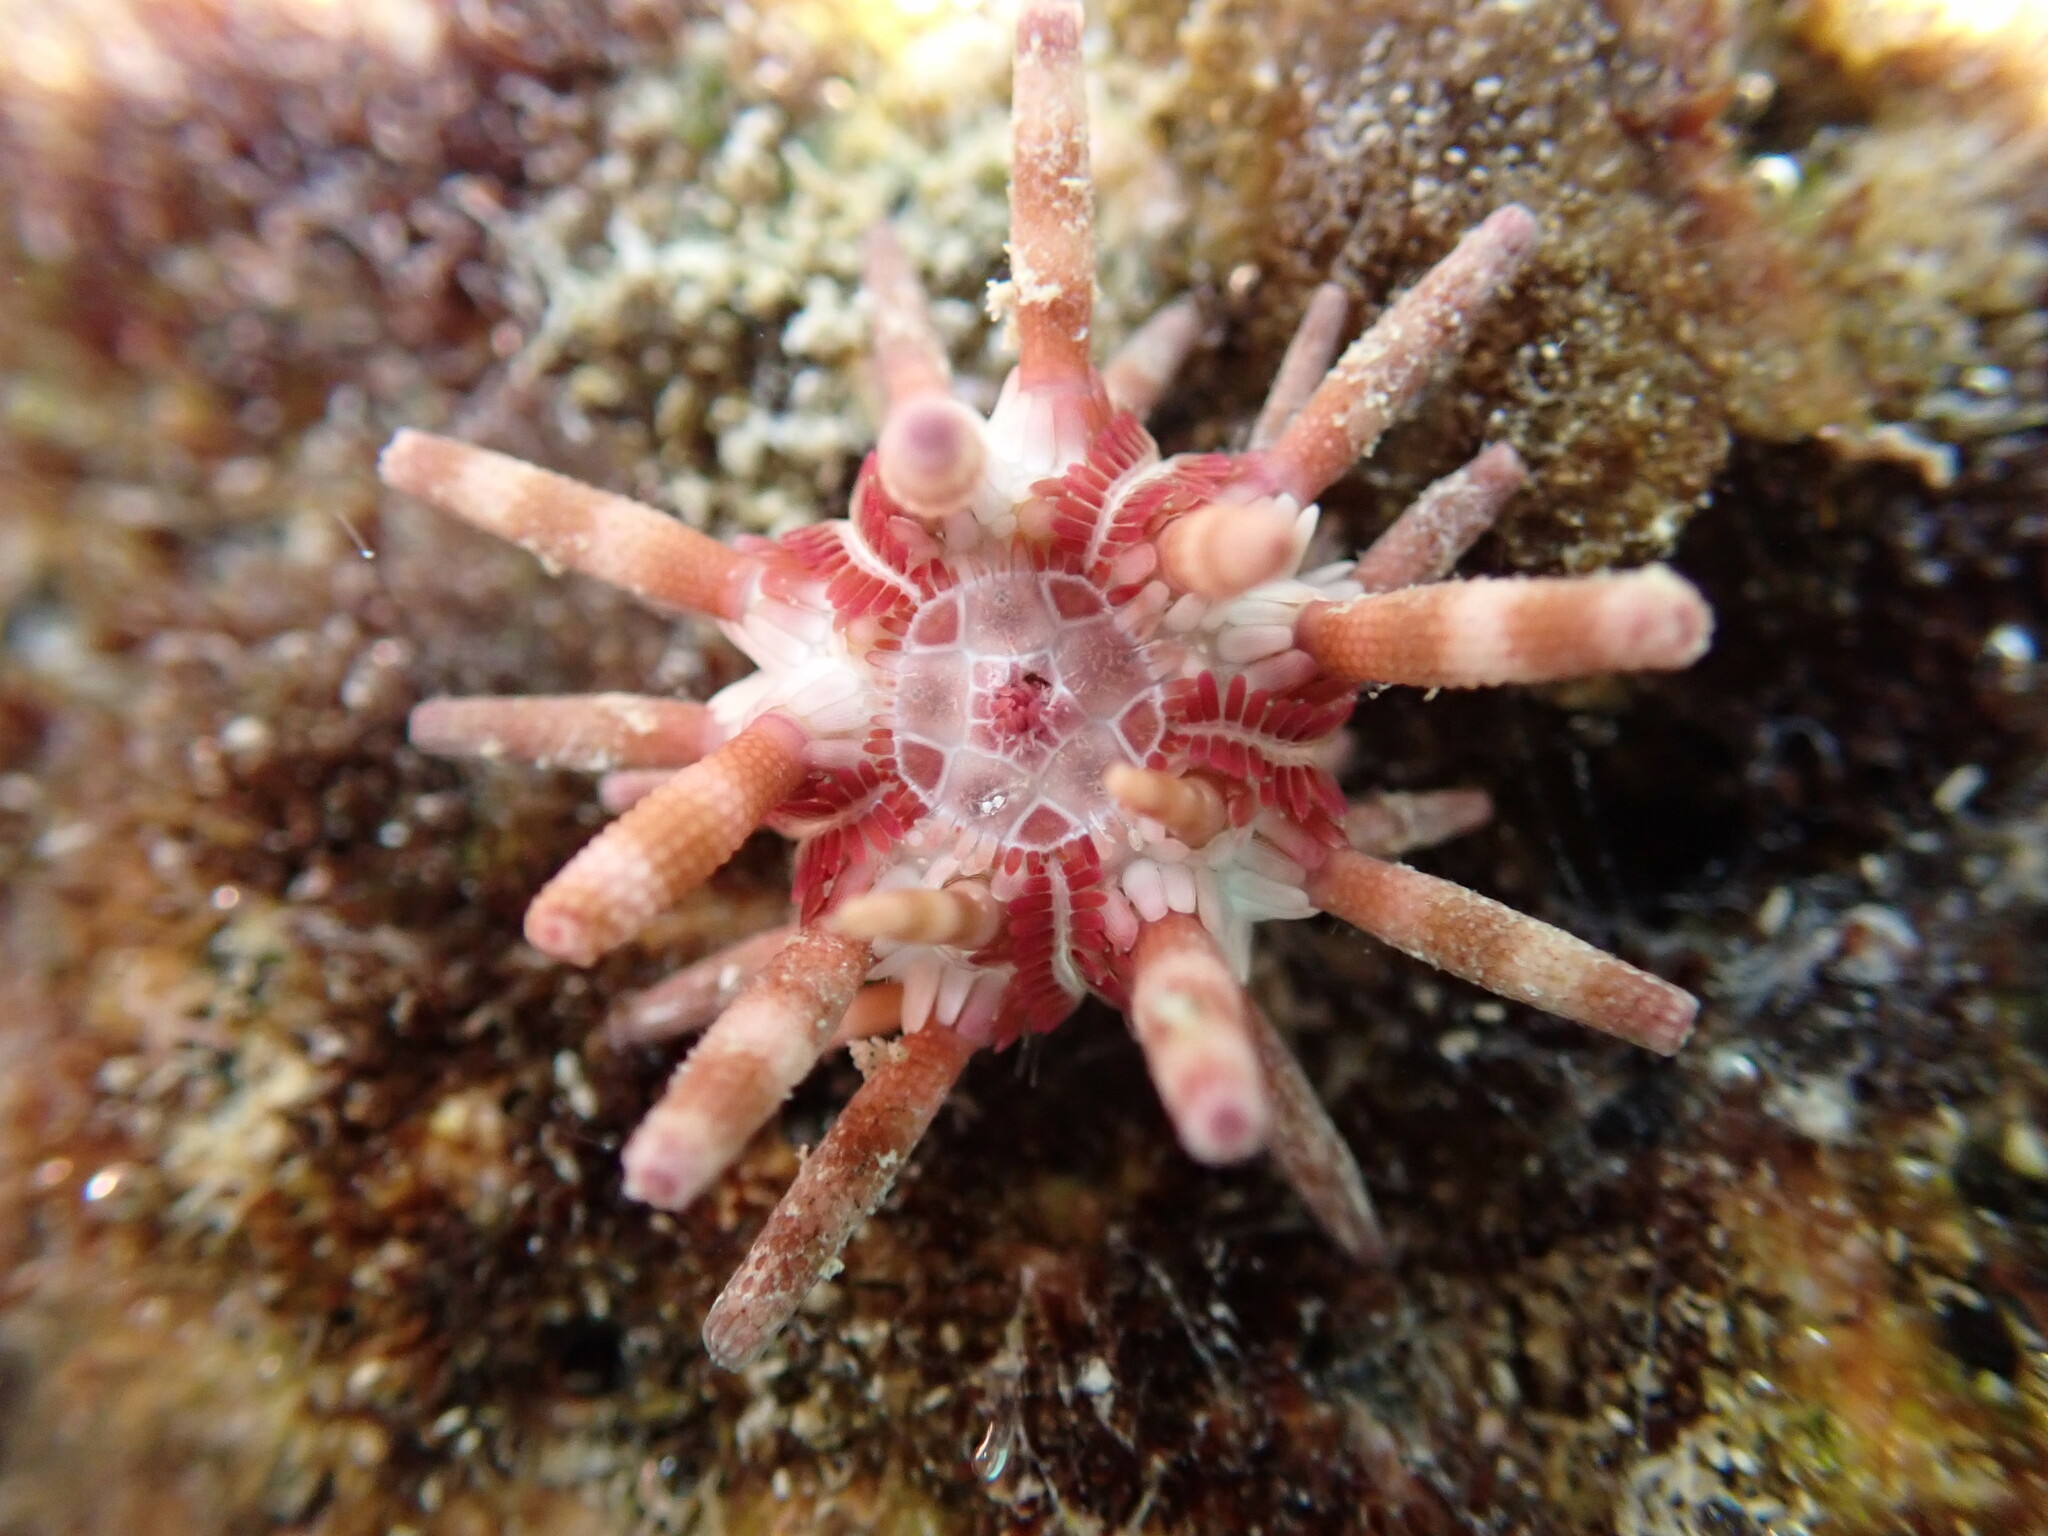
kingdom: Animalia
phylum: Echinodermata
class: Echinoidea
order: Cidaroida
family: Cidaridae
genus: Eucidaris
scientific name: Eucidaris metularia
